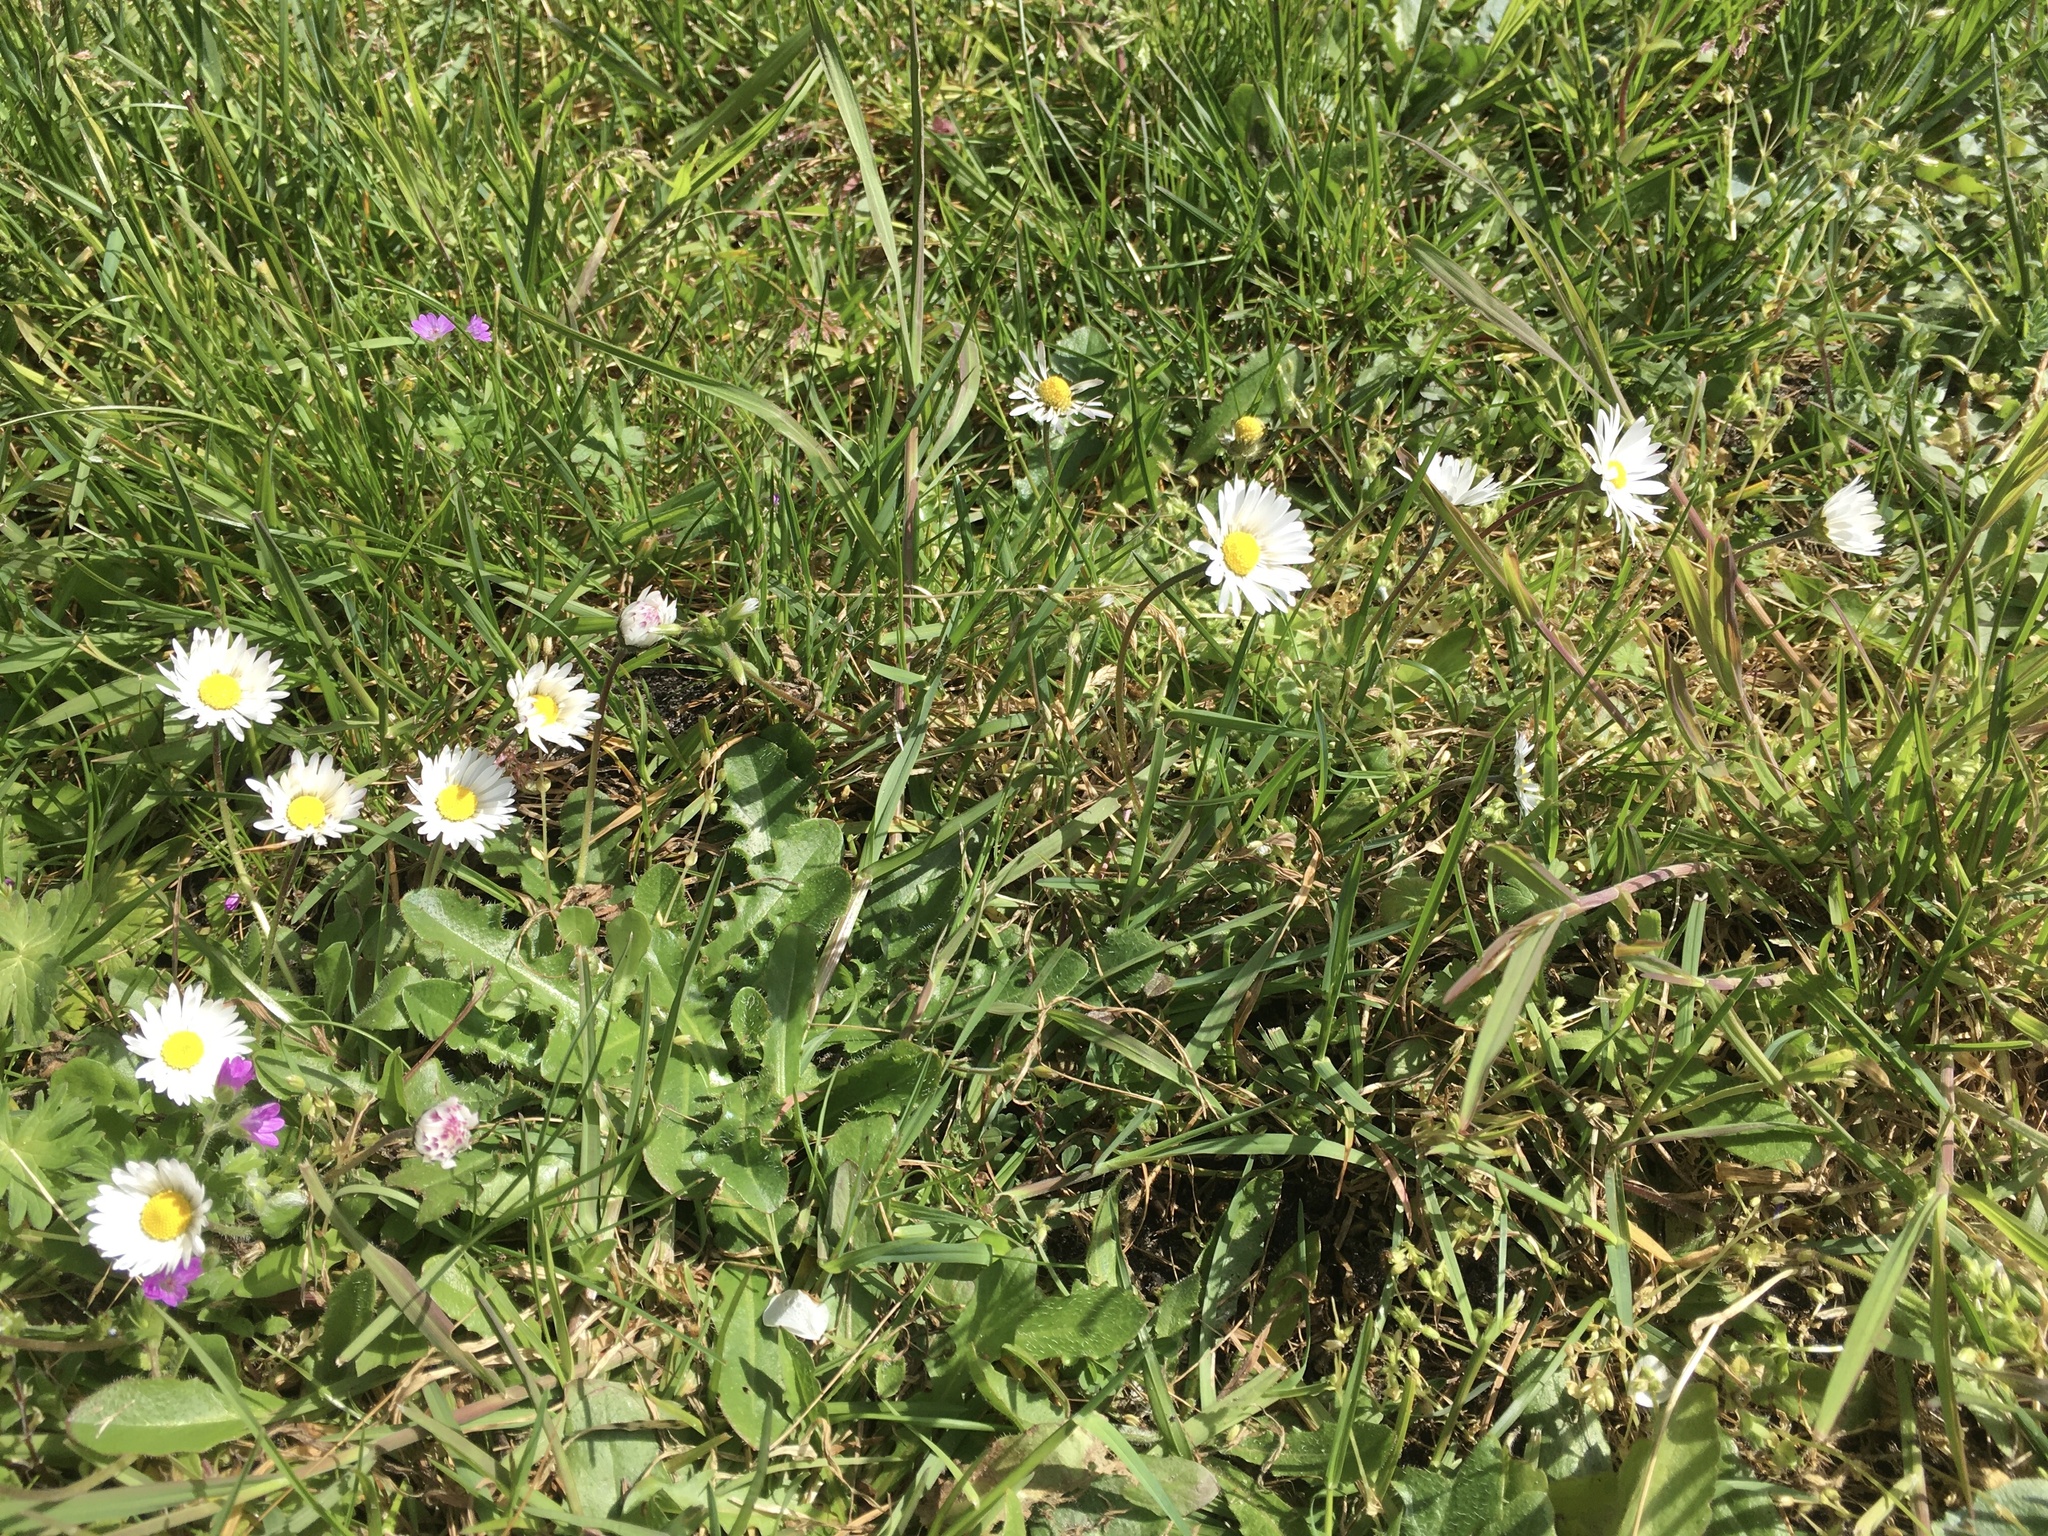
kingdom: Plantae
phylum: Tracheophyta
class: Magnoliopsida
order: Asterales
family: Asteraceae
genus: Bellis
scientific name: Bellis perennis
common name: Lawndaisy
